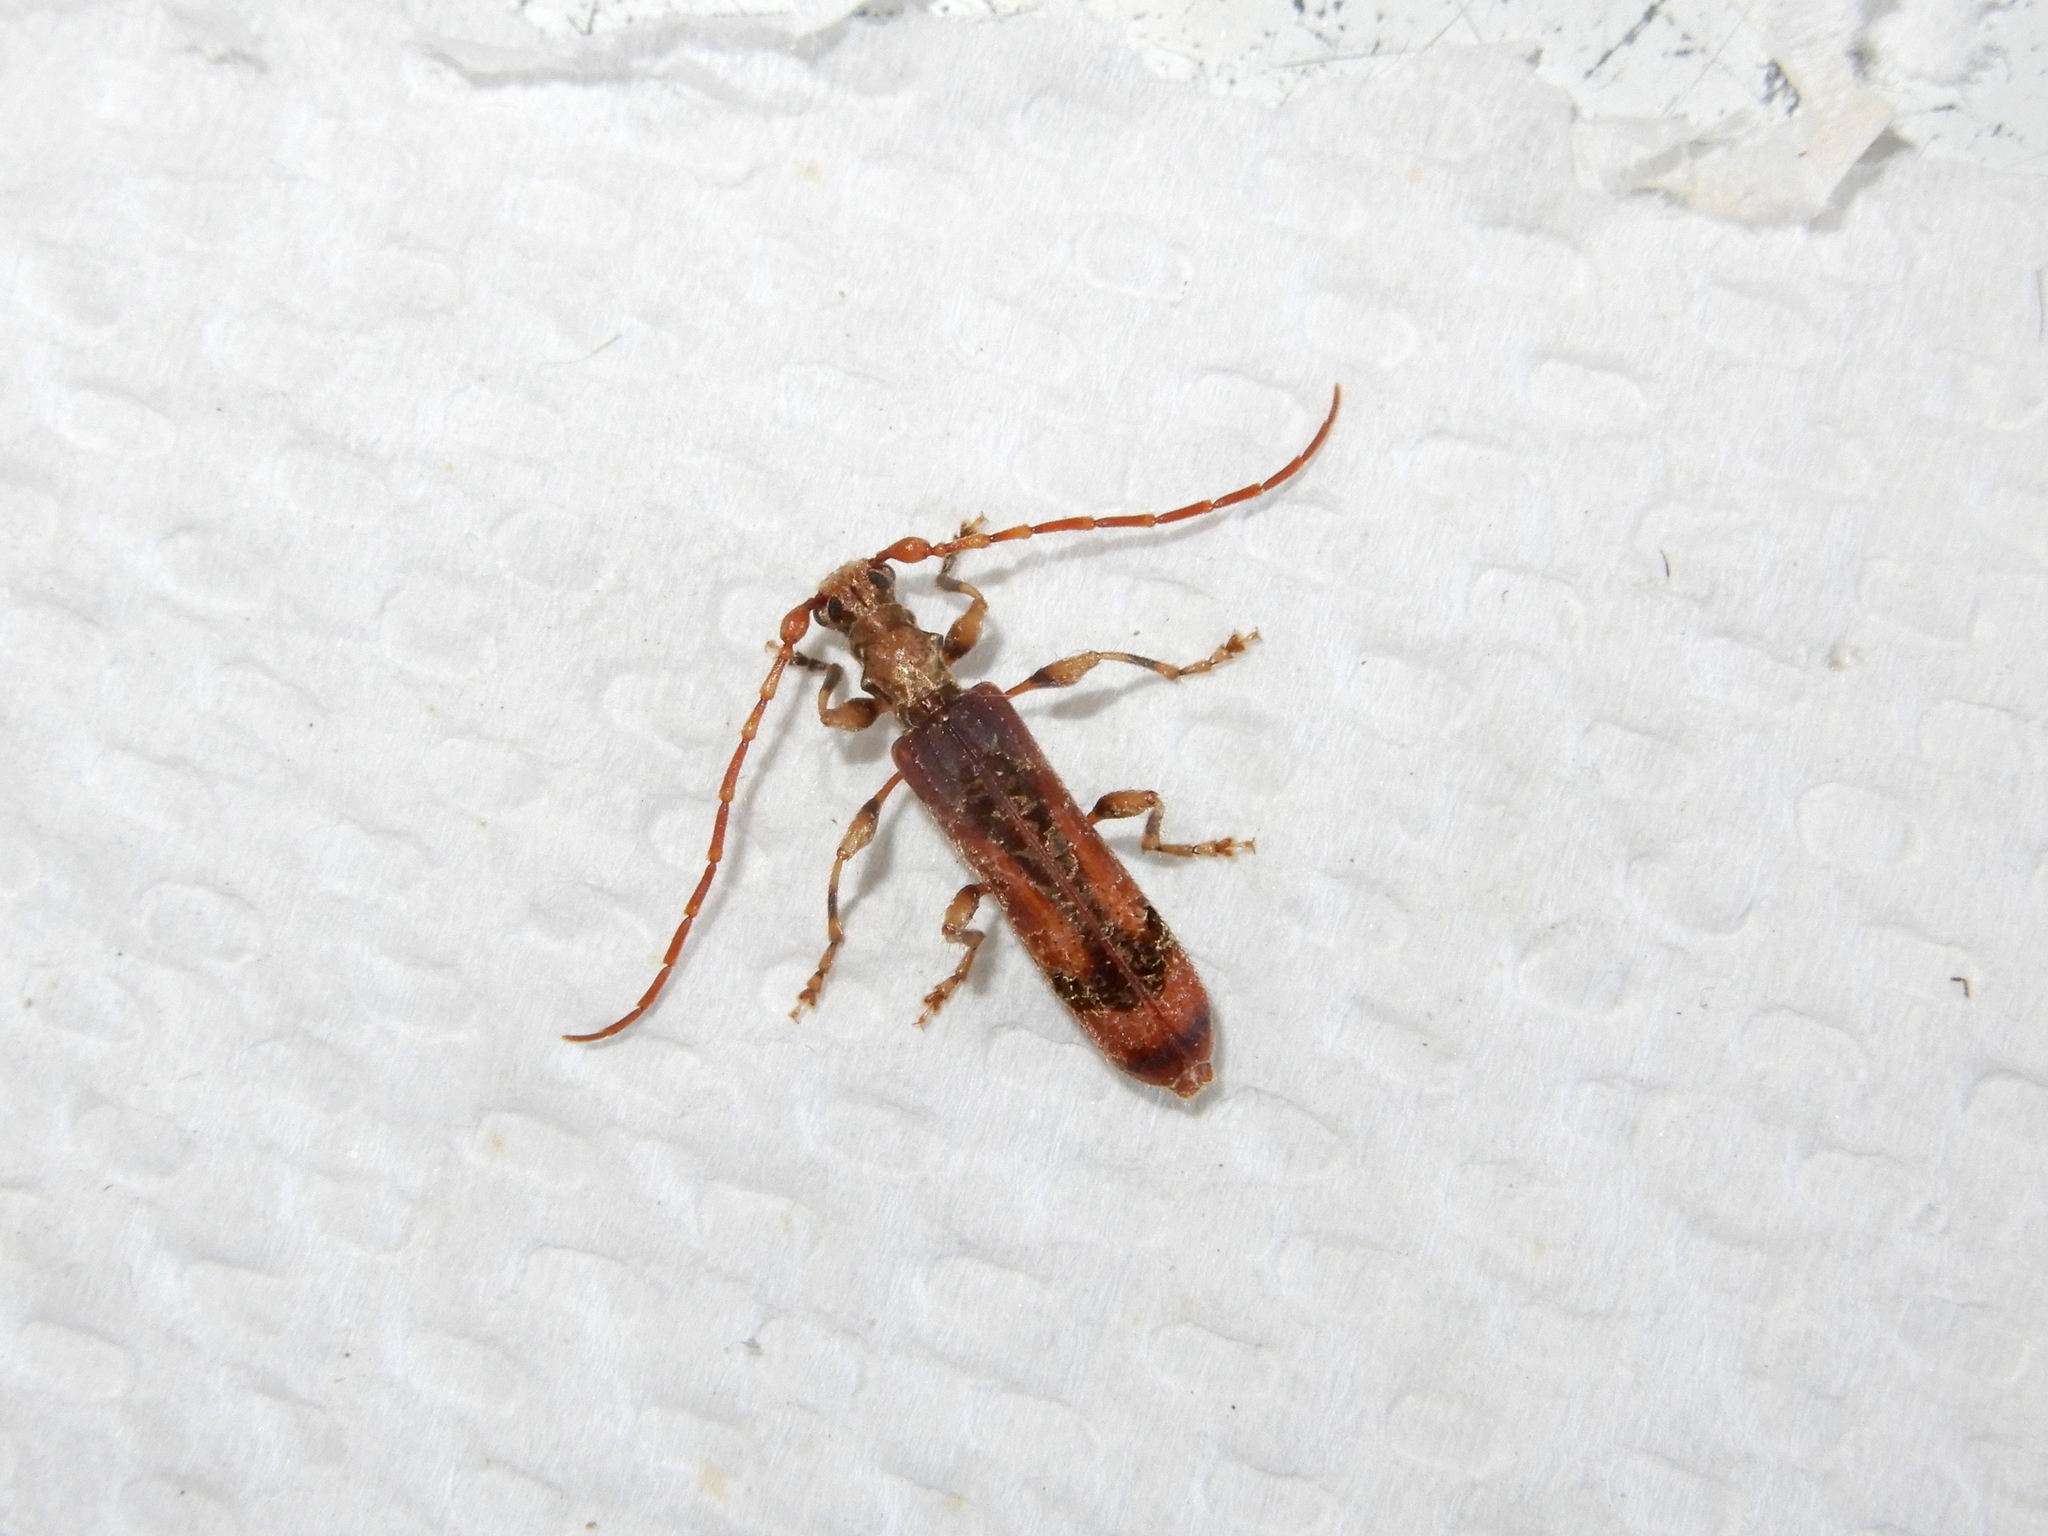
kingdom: Animalia
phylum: Arthropoda
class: Insecta
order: Coleoptera
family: Cerambycidae
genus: Tessaromma
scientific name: Tessaromma undatum
